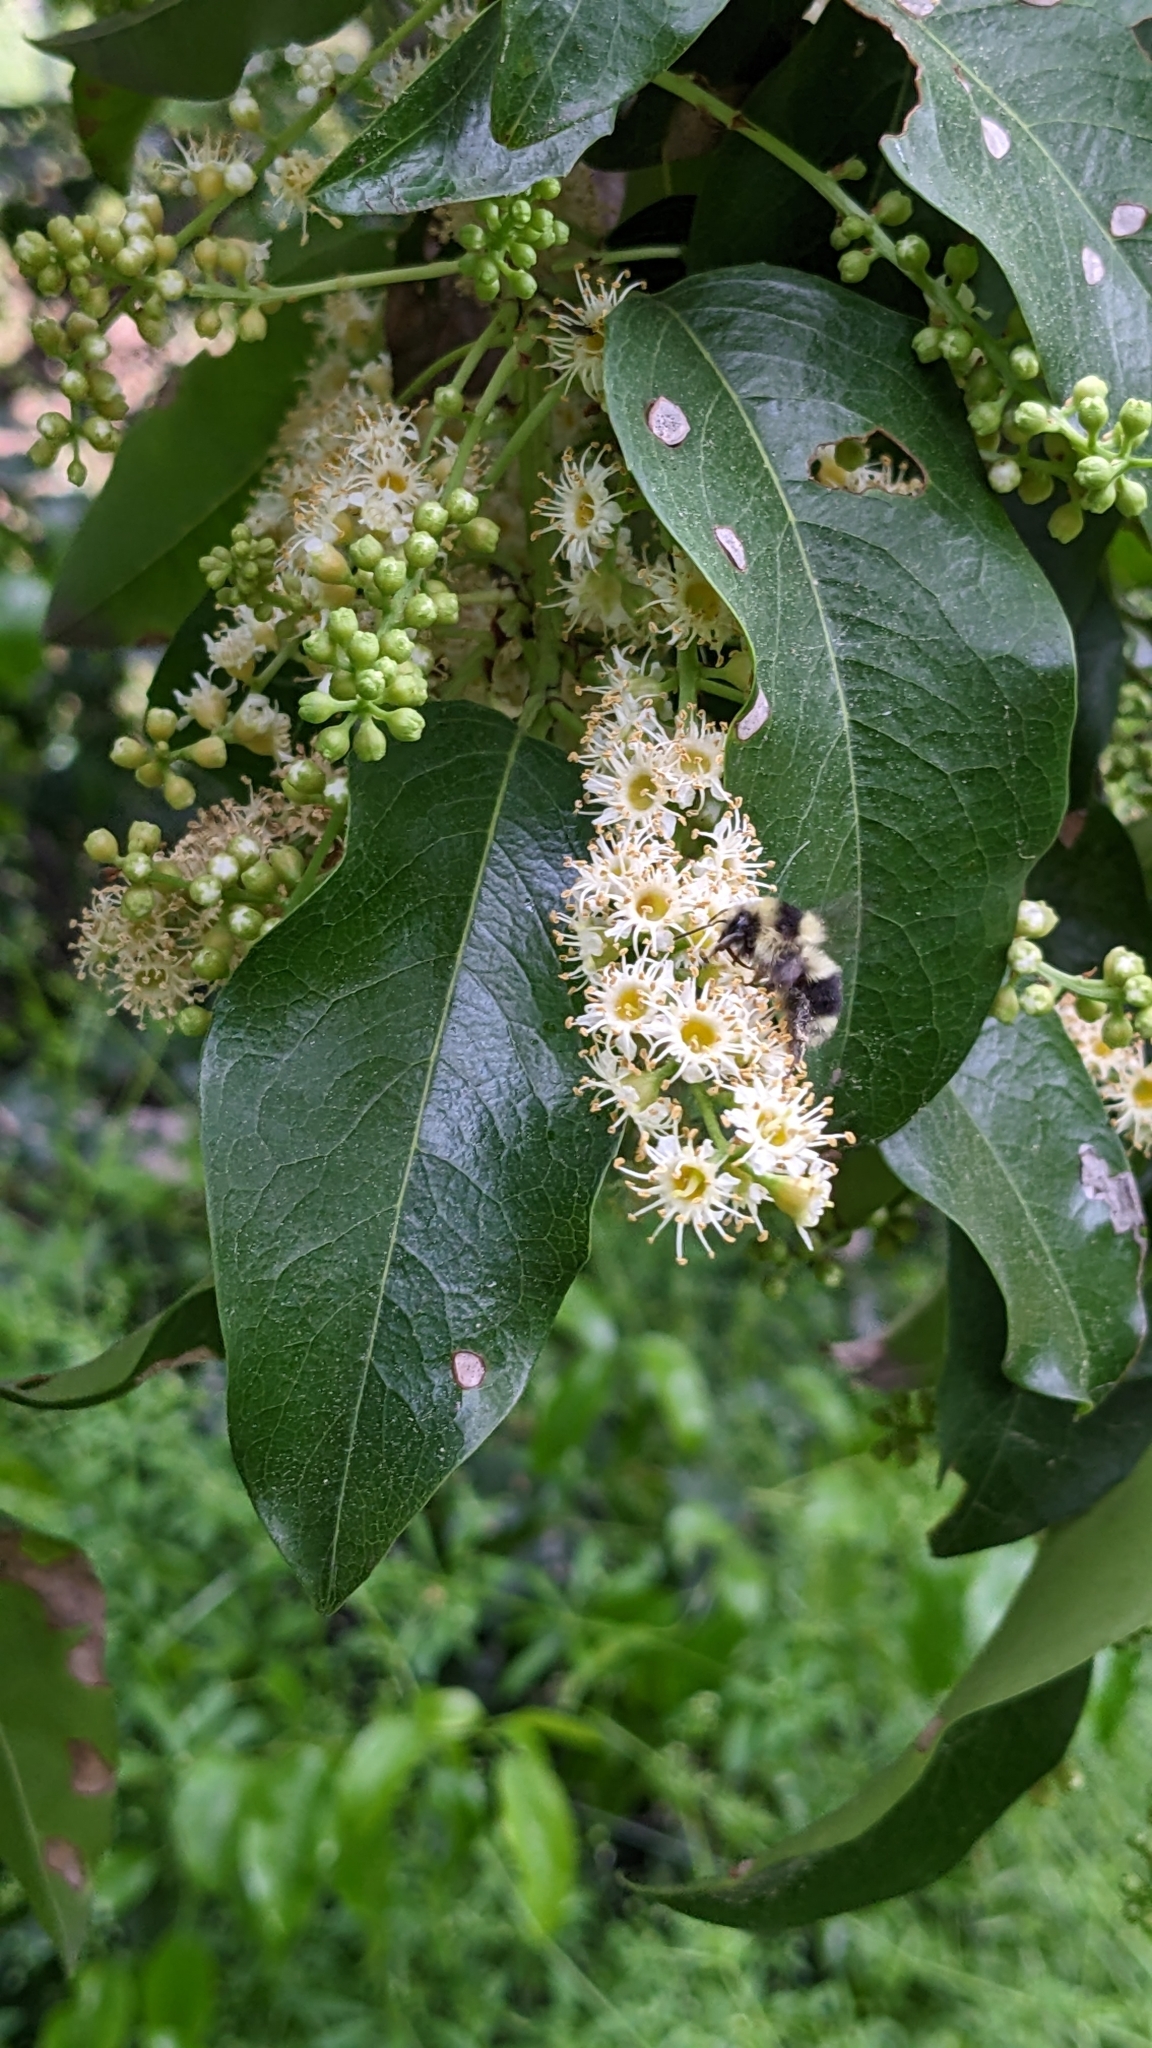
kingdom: Animalia
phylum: Arthropoda
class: Insecta
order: Hymenoptera
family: Apidae
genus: Bombus
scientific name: Bombus melanopygus
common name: Black tail bumble bee
